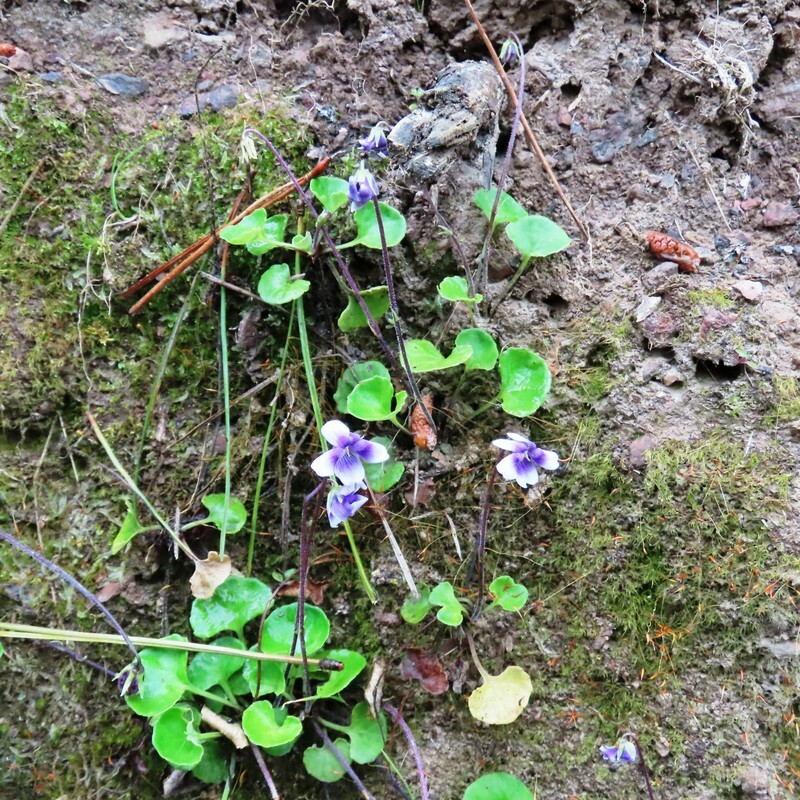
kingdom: Plantae
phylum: Tracheophyta
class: Magnoliopsida
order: Malpighiales
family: Violaceae
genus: Viola
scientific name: Viola hederacea
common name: Australian violet
